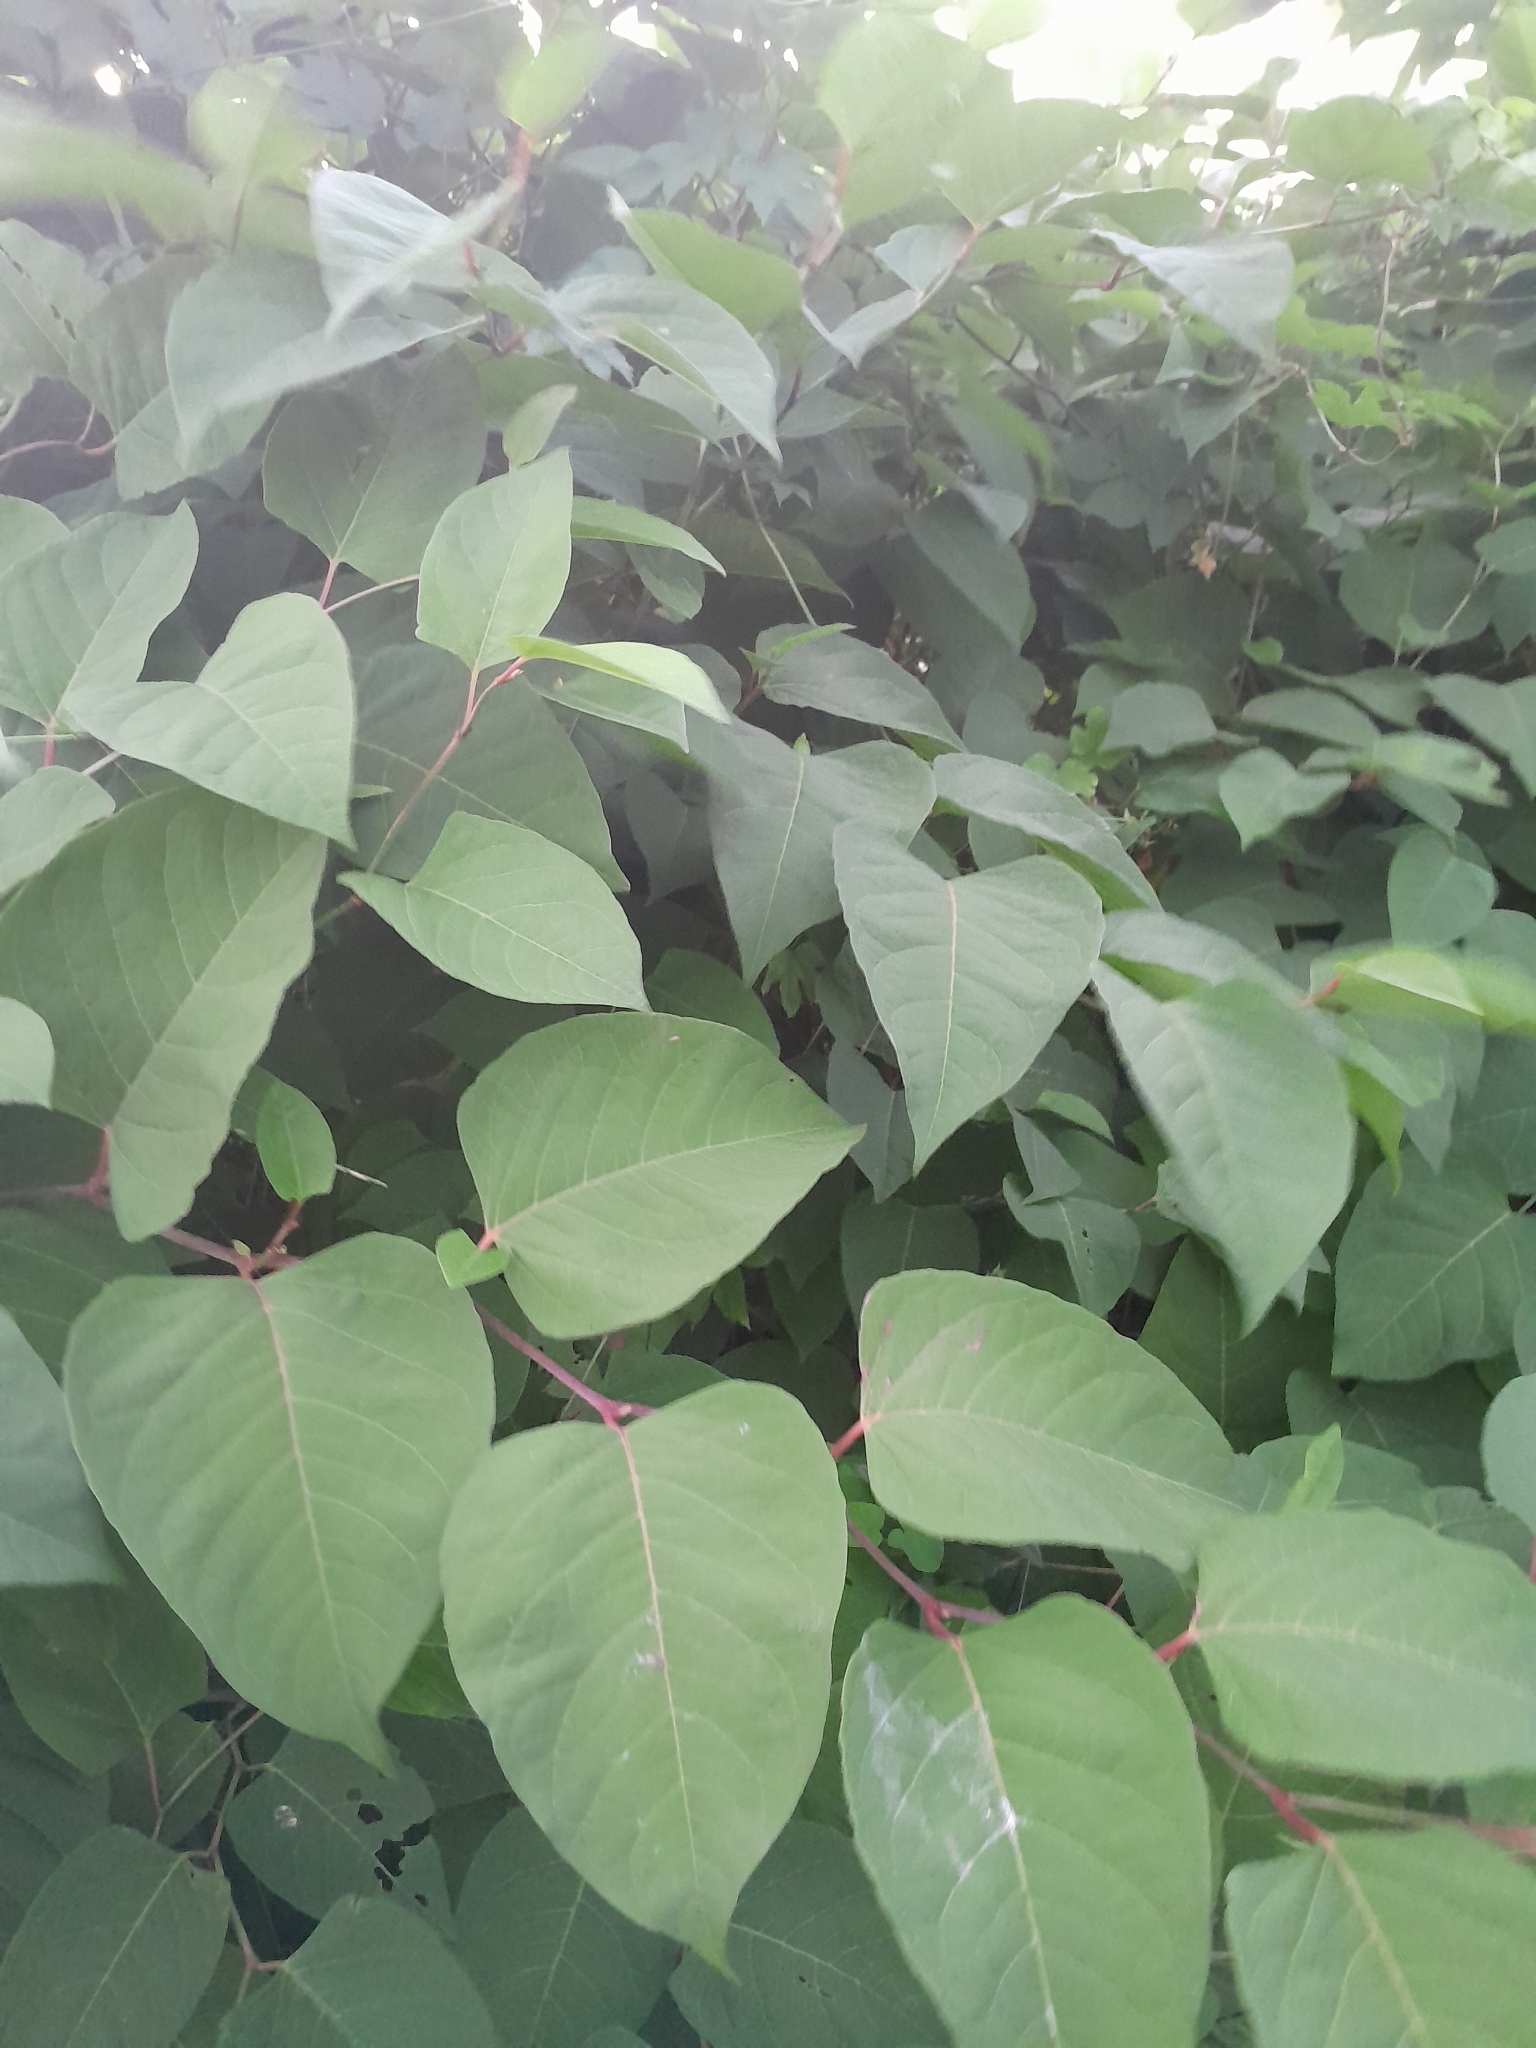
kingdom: Plantae
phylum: Tracheophyta
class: Magnoliopsida
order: Caryophyllales
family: Polygonaceae
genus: Reynoutria
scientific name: Reynoutria bohemica
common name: Bohemian knotweed
